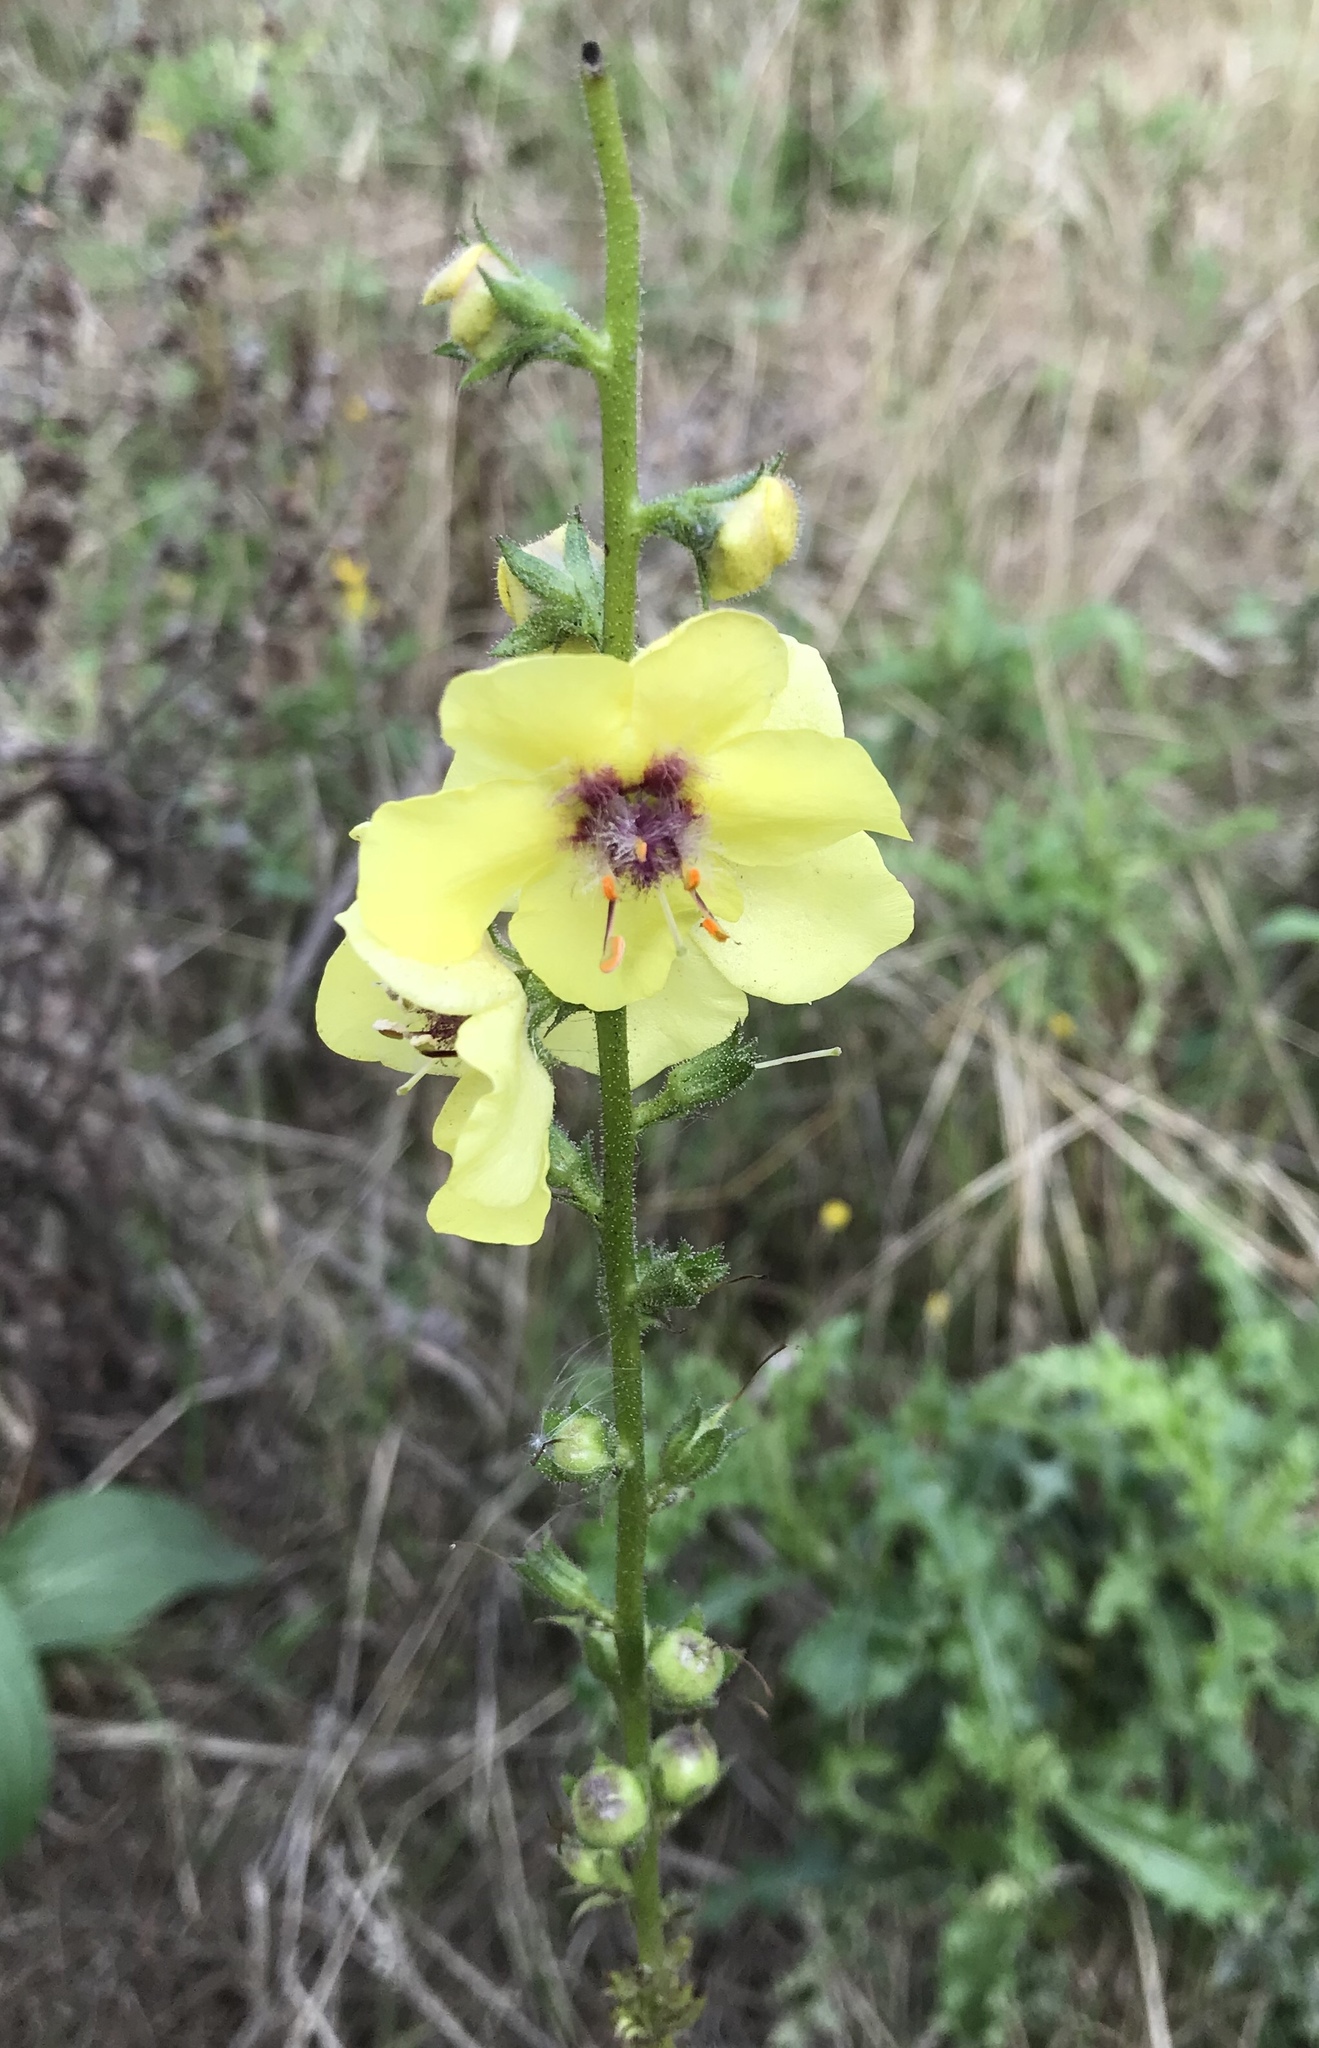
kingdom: Plantae
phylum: Tracheophyta
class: Magnoliopsida
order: Lamiales
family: Scrophulariaceae
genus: Verbascum
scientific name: Verbascum blattaria
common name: Moth mullein
